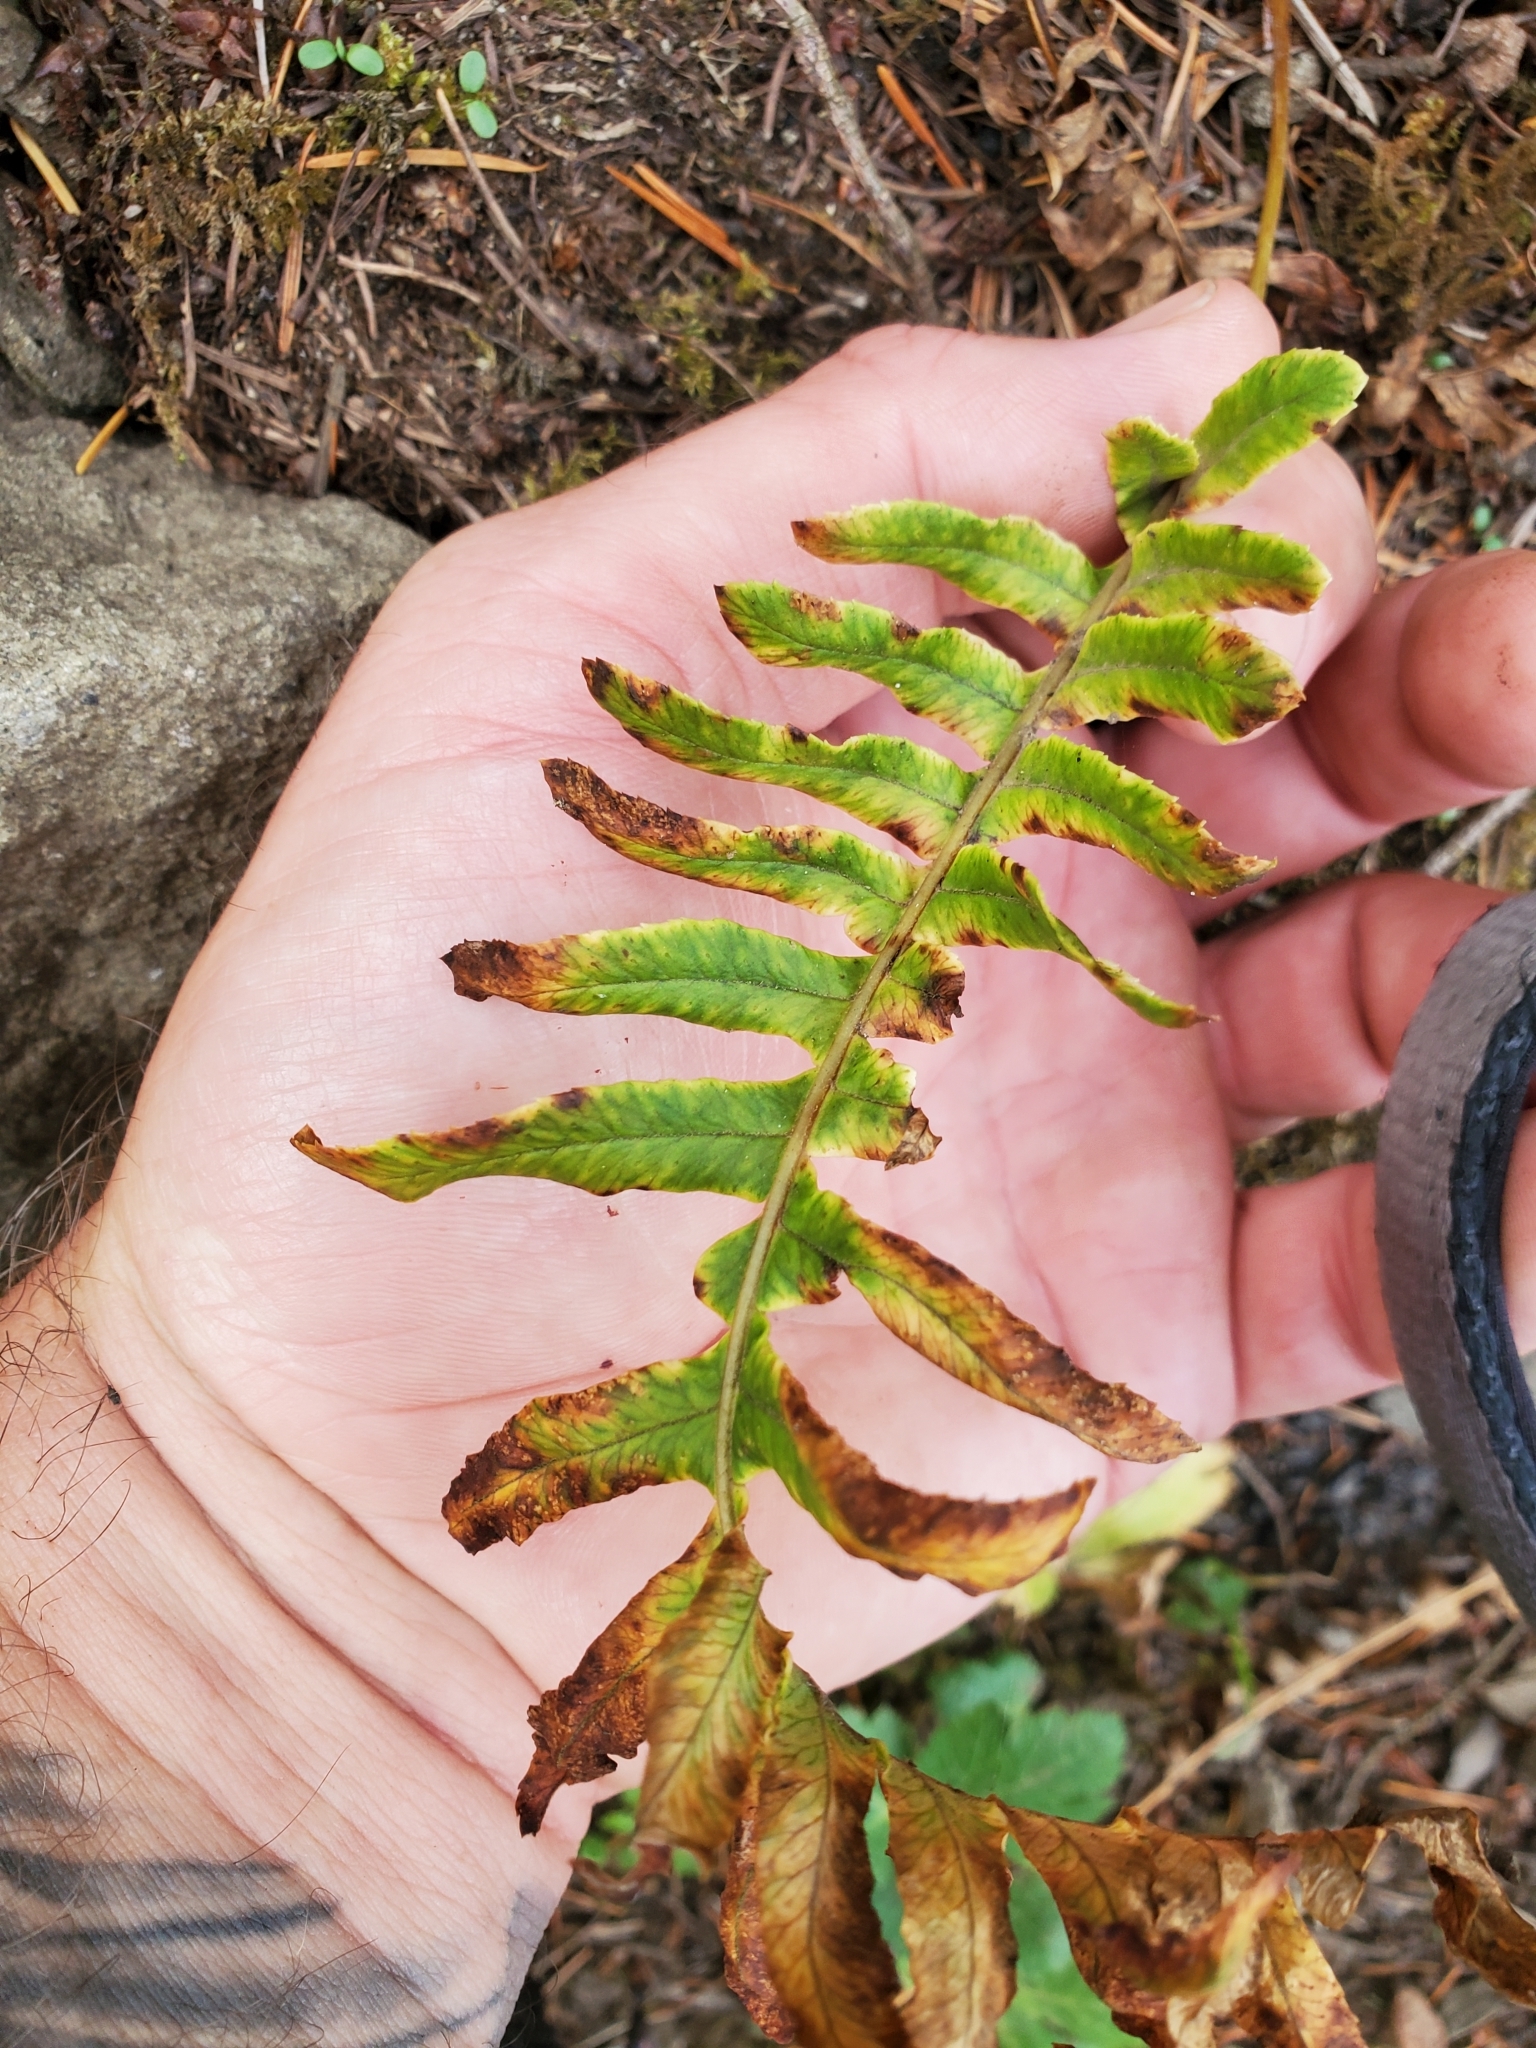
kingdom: Plantae
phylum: Tracheophyta
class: Polypodiopsida
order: Polypodiales
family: Polypodiaceae
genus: Polypodium
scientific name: Polypodium glycyrrhiza
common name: Licorice fern
